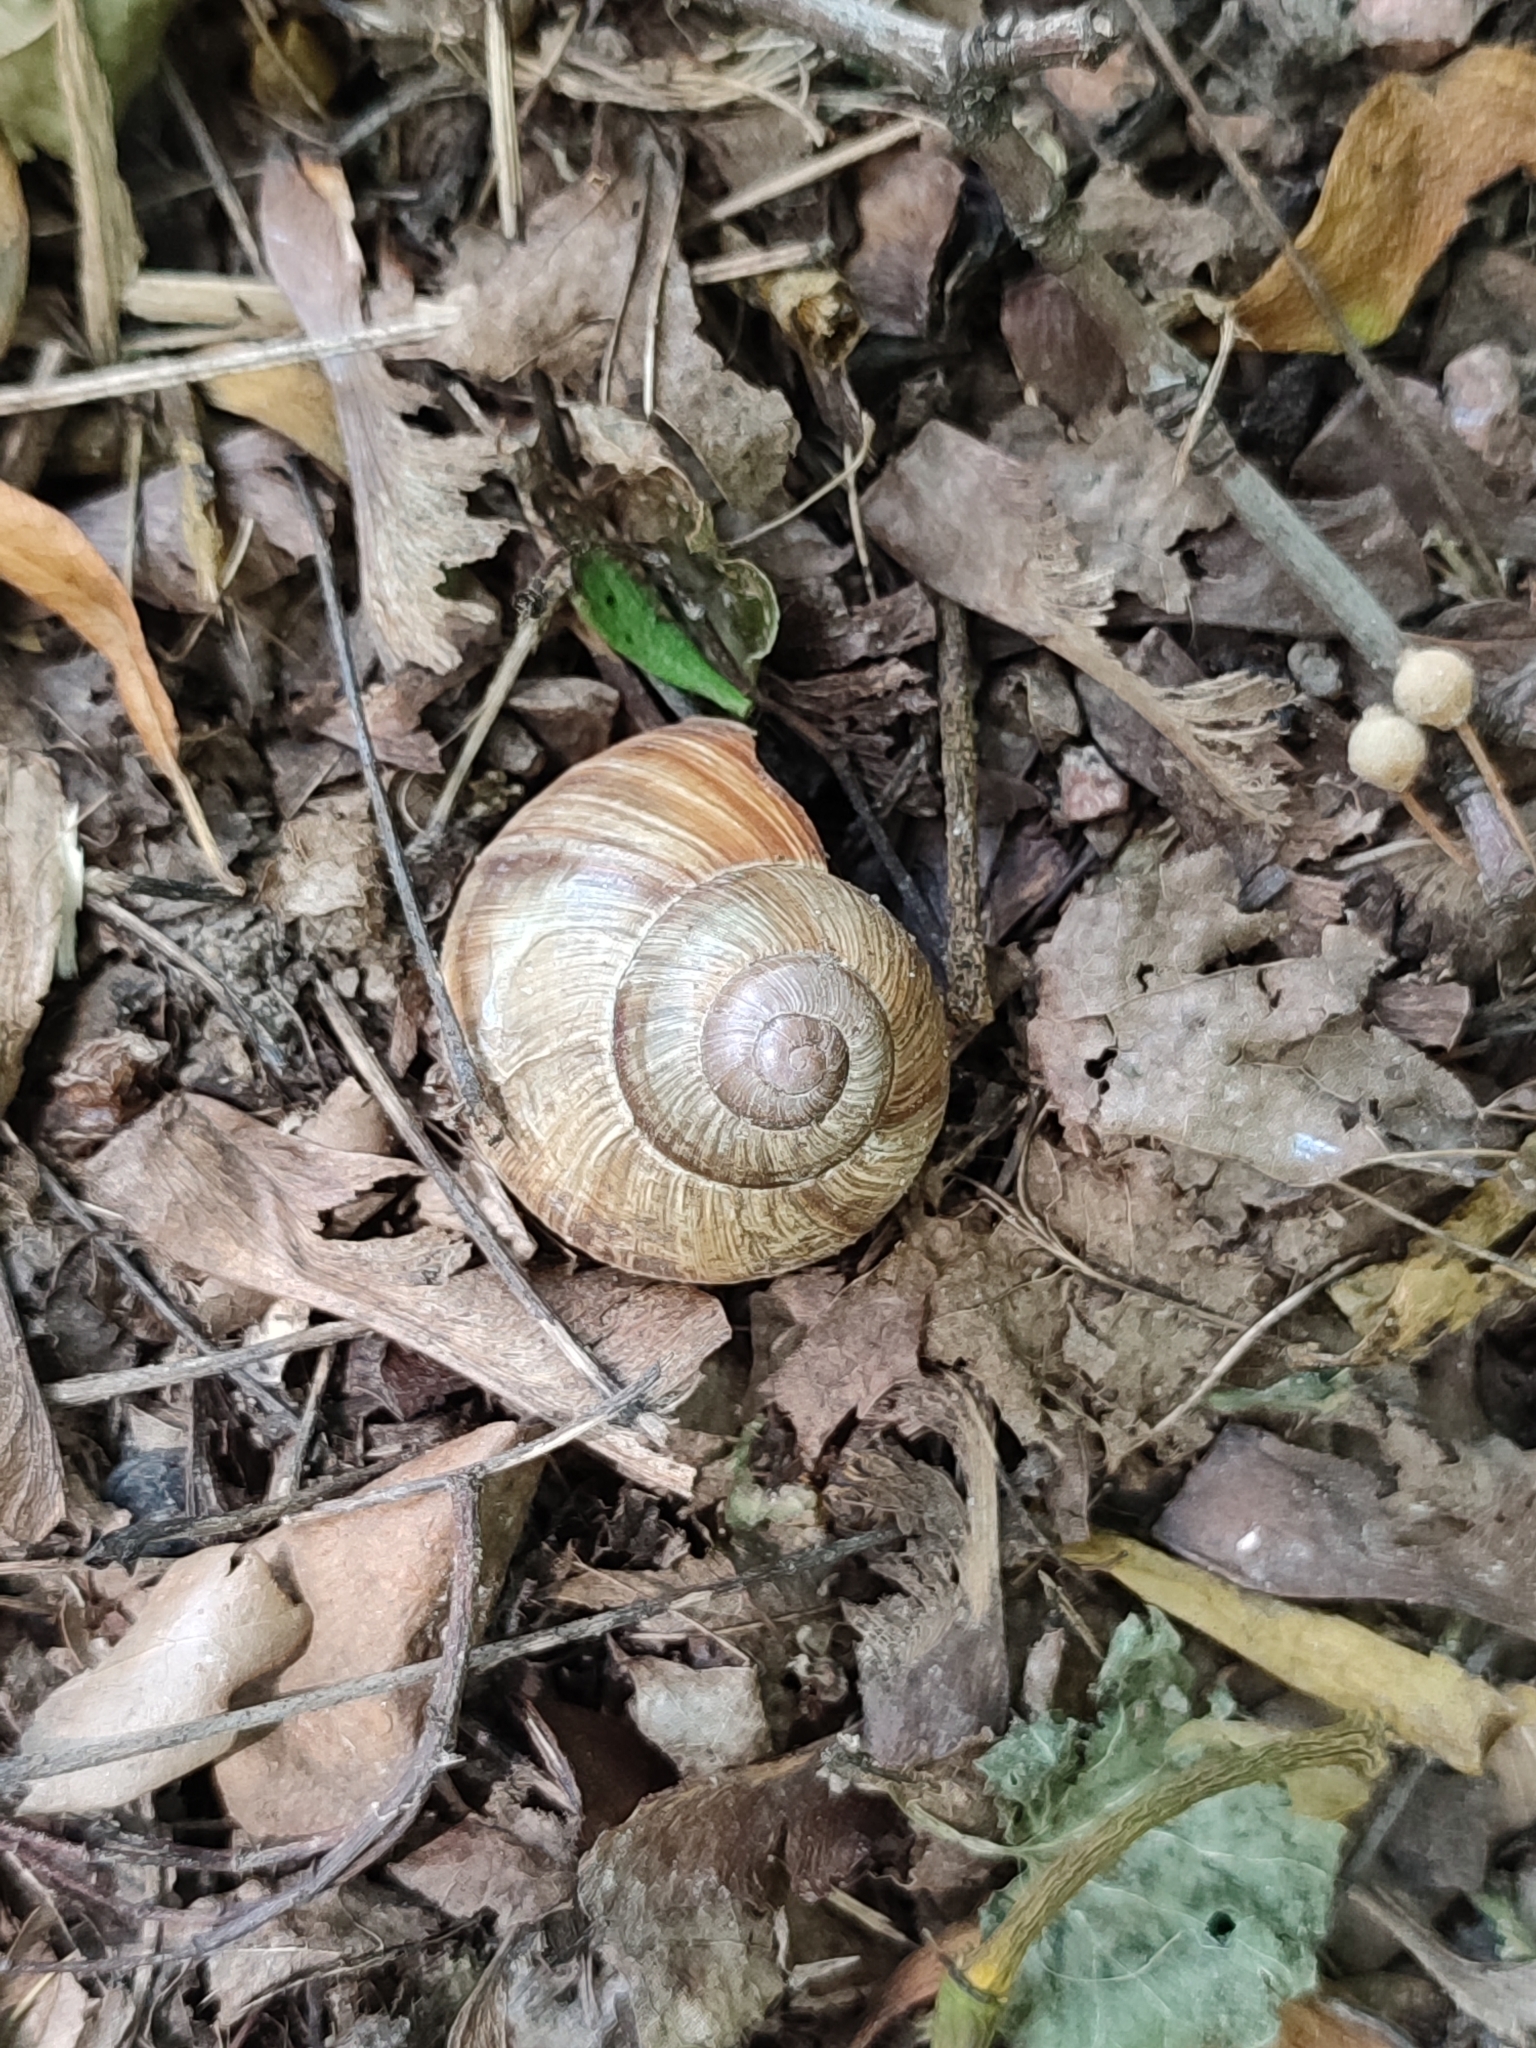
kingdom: Animalia
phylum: Mollusca
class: Gastropoda
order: Stylommatophora
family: Helicidae
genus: Helix
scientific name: Helix pomatia
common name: Roman snail
